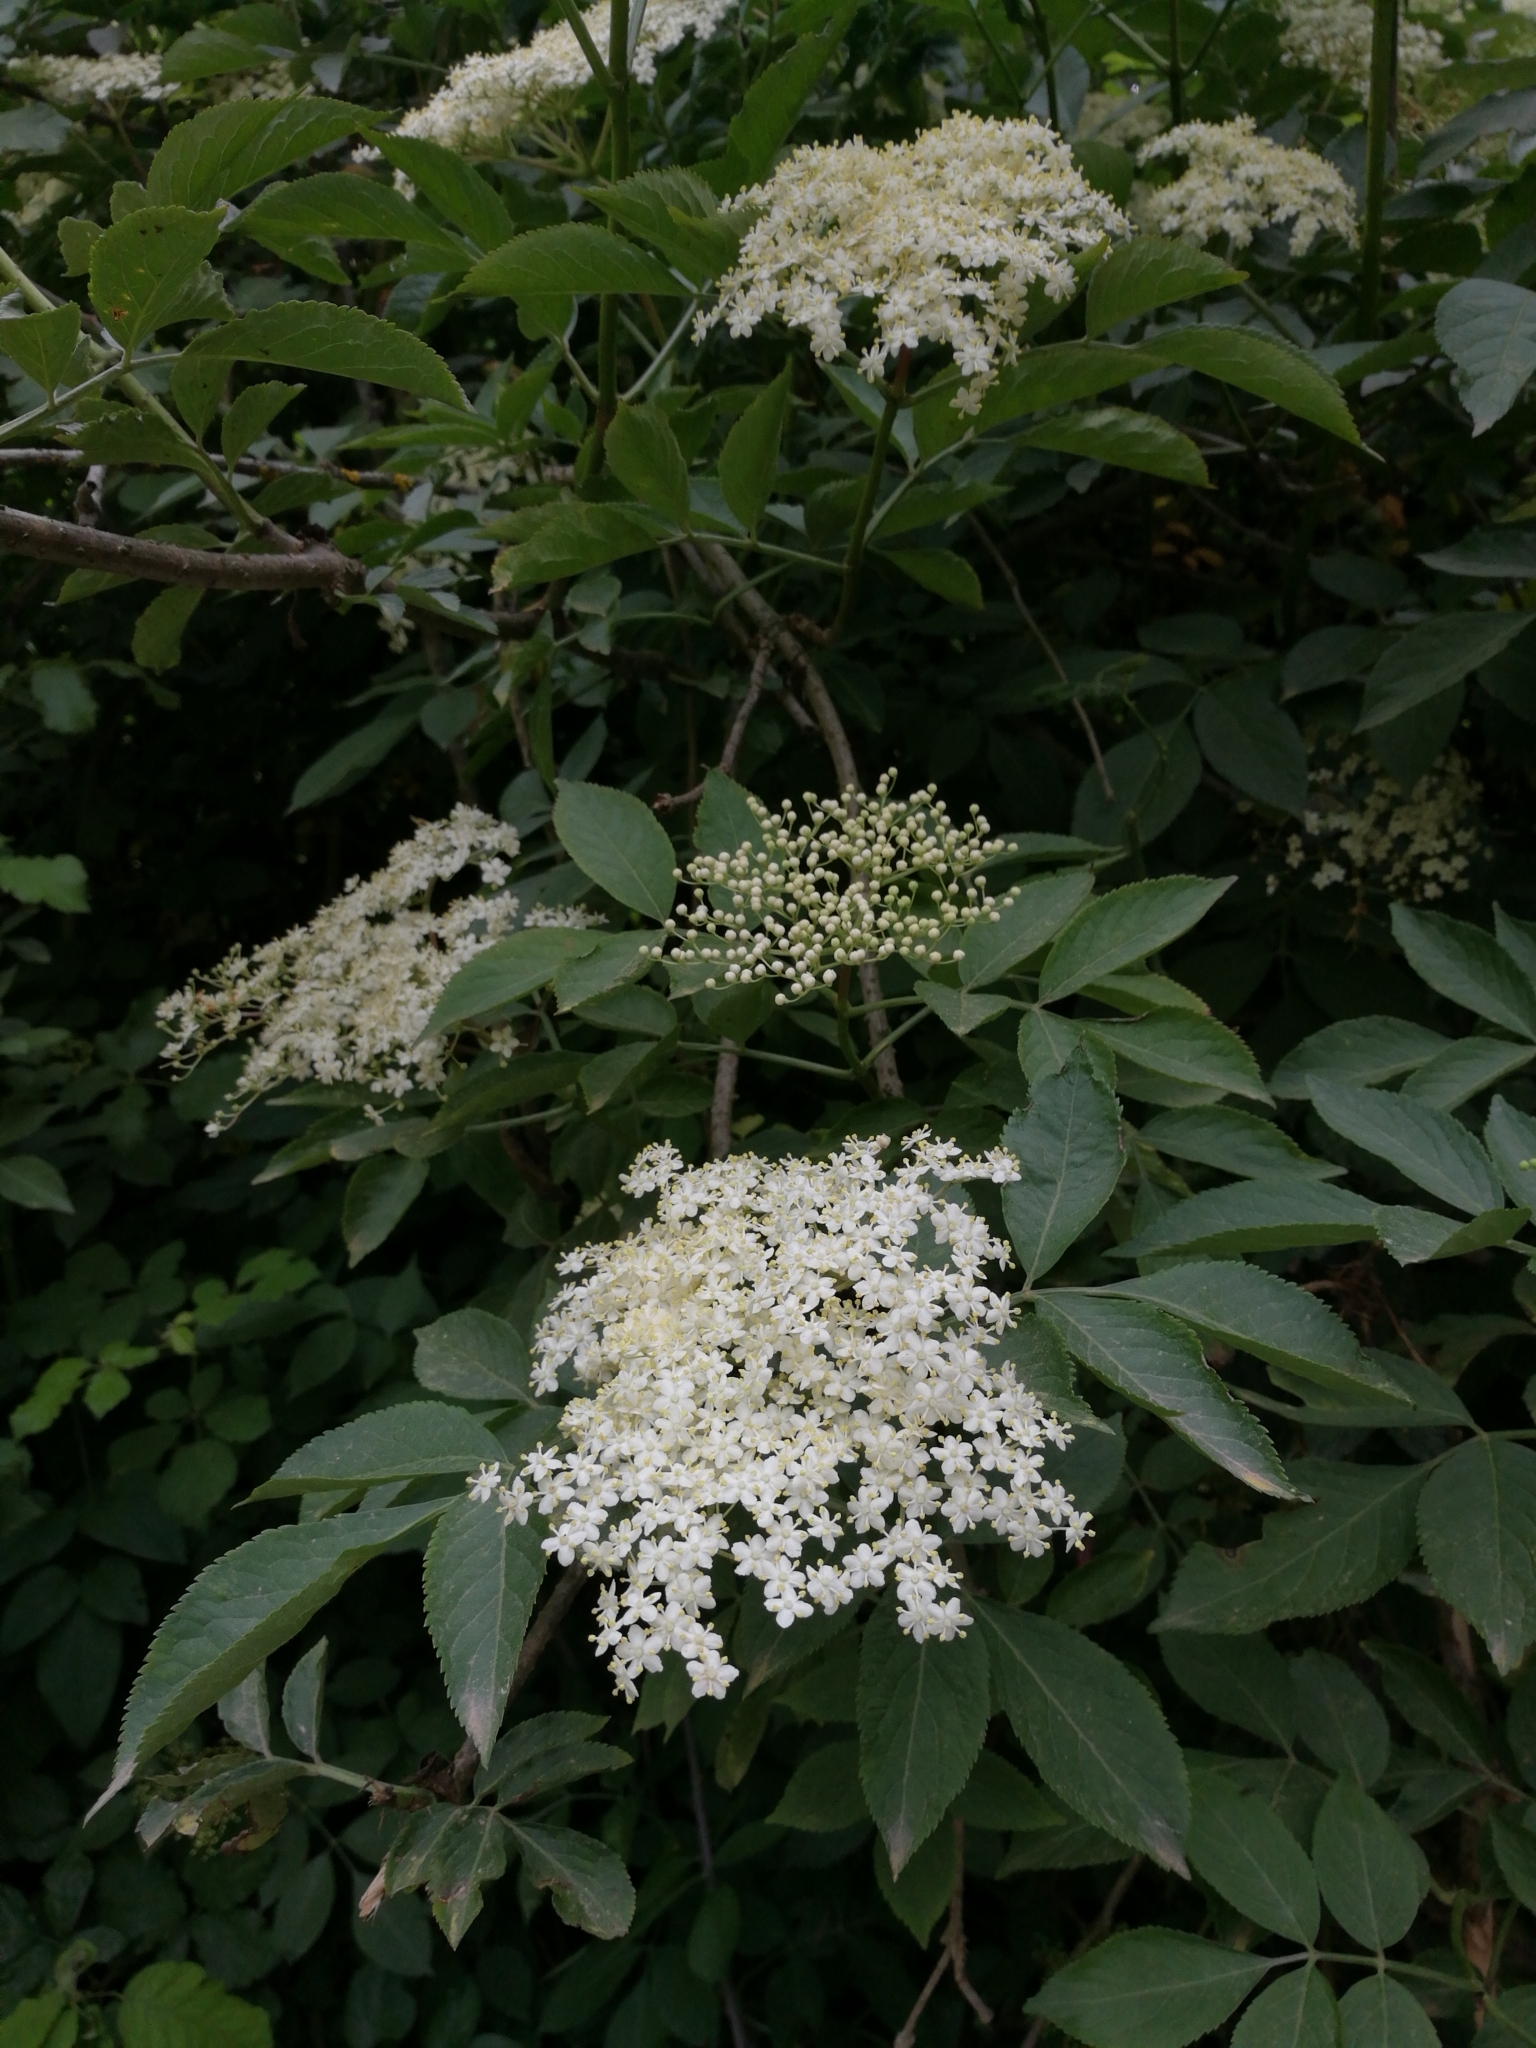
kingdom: Plantae
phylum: Tracheophyta
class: Magnoliopsida
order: Dipsacales
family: Viburnaceae
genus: Sambucus
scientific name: Sambucus nigra
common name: Elder
